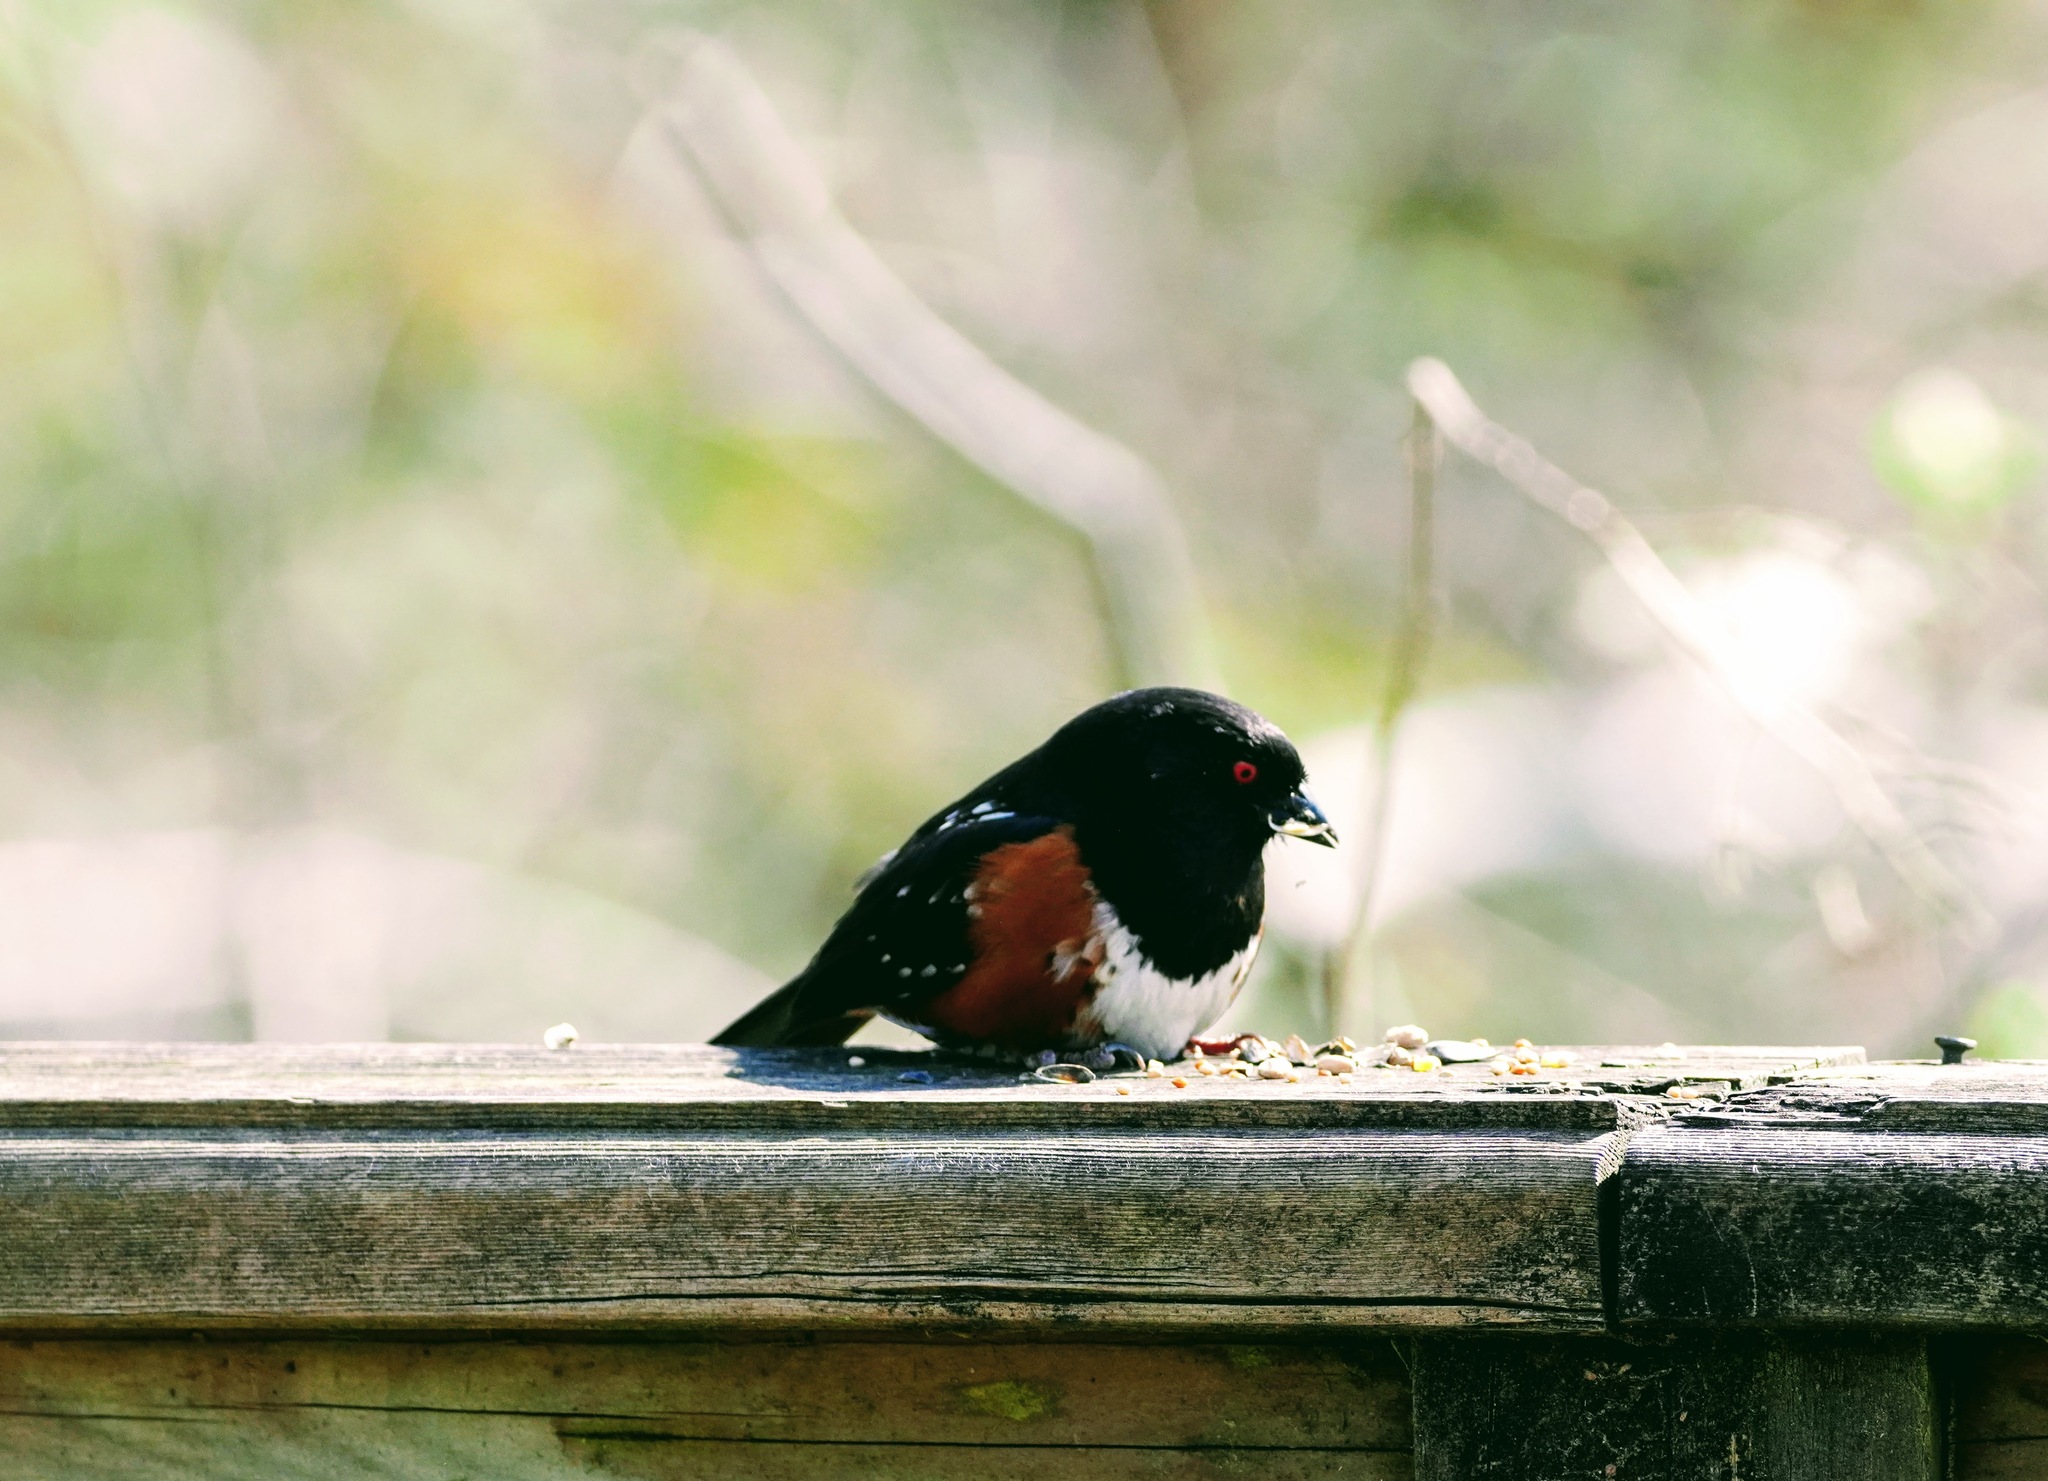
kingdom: Animalia
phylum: Chordata
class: Aves
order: Passeriformes
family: Passerellidae
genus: Pipilo
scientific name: Pipilo maculatus
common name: Spotted towhee
